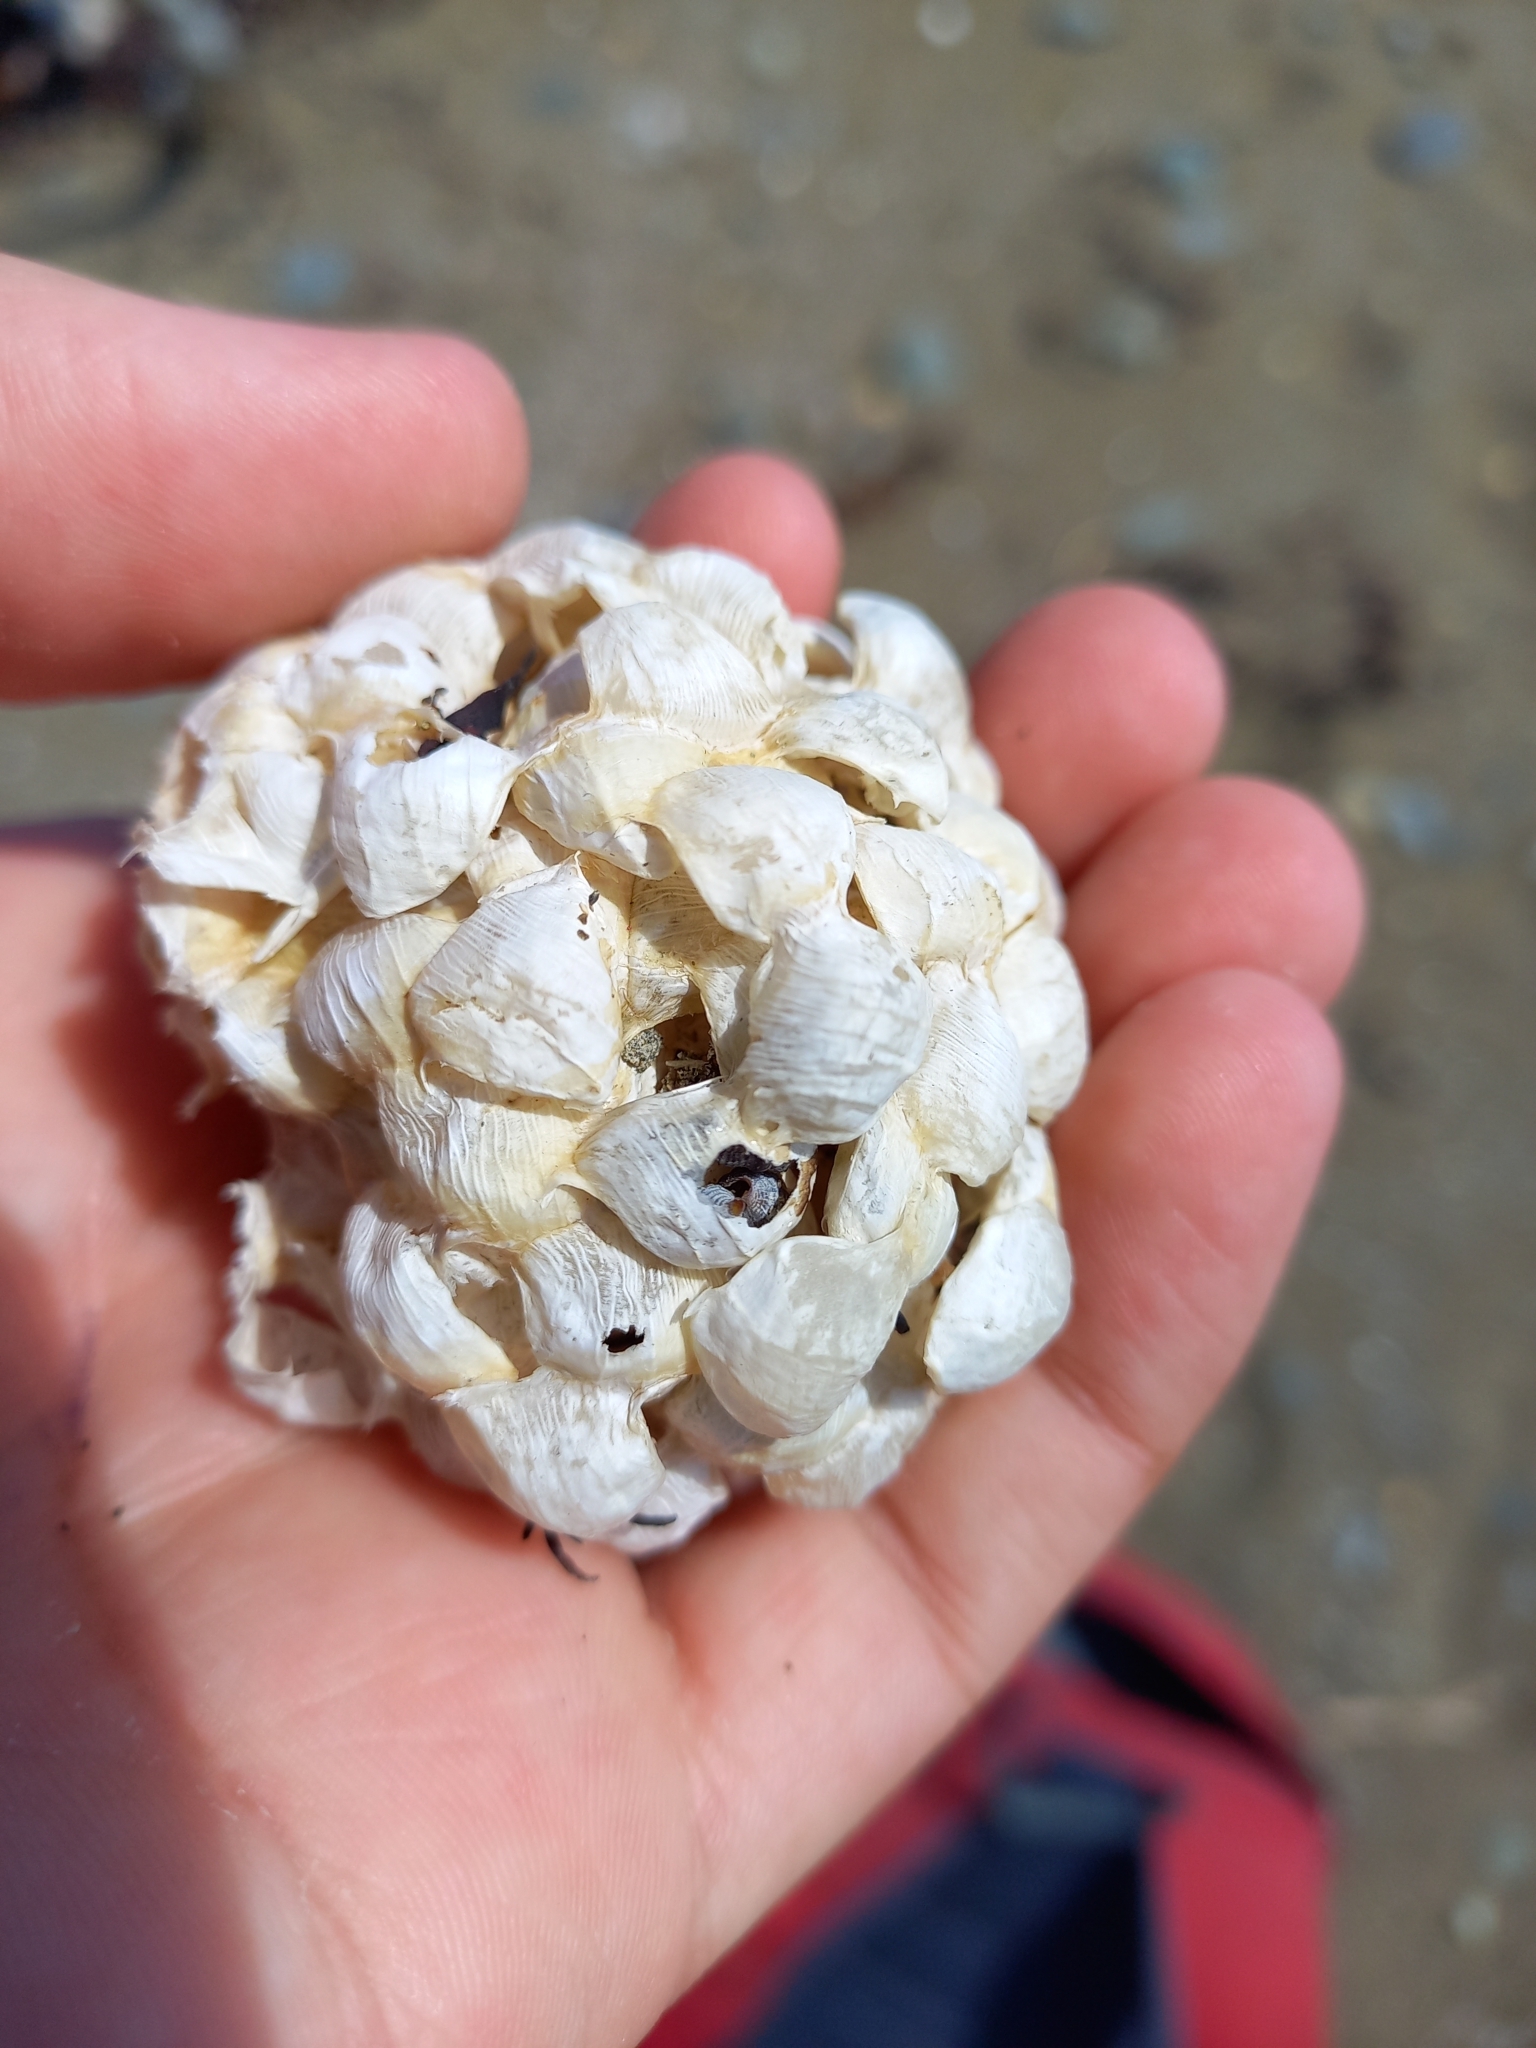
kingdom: Animalia
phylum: Mollusca
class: Gastropoda
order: Neogastropoda
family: Austrosiphonidae
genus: Penion
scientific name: Penion sulcatus
